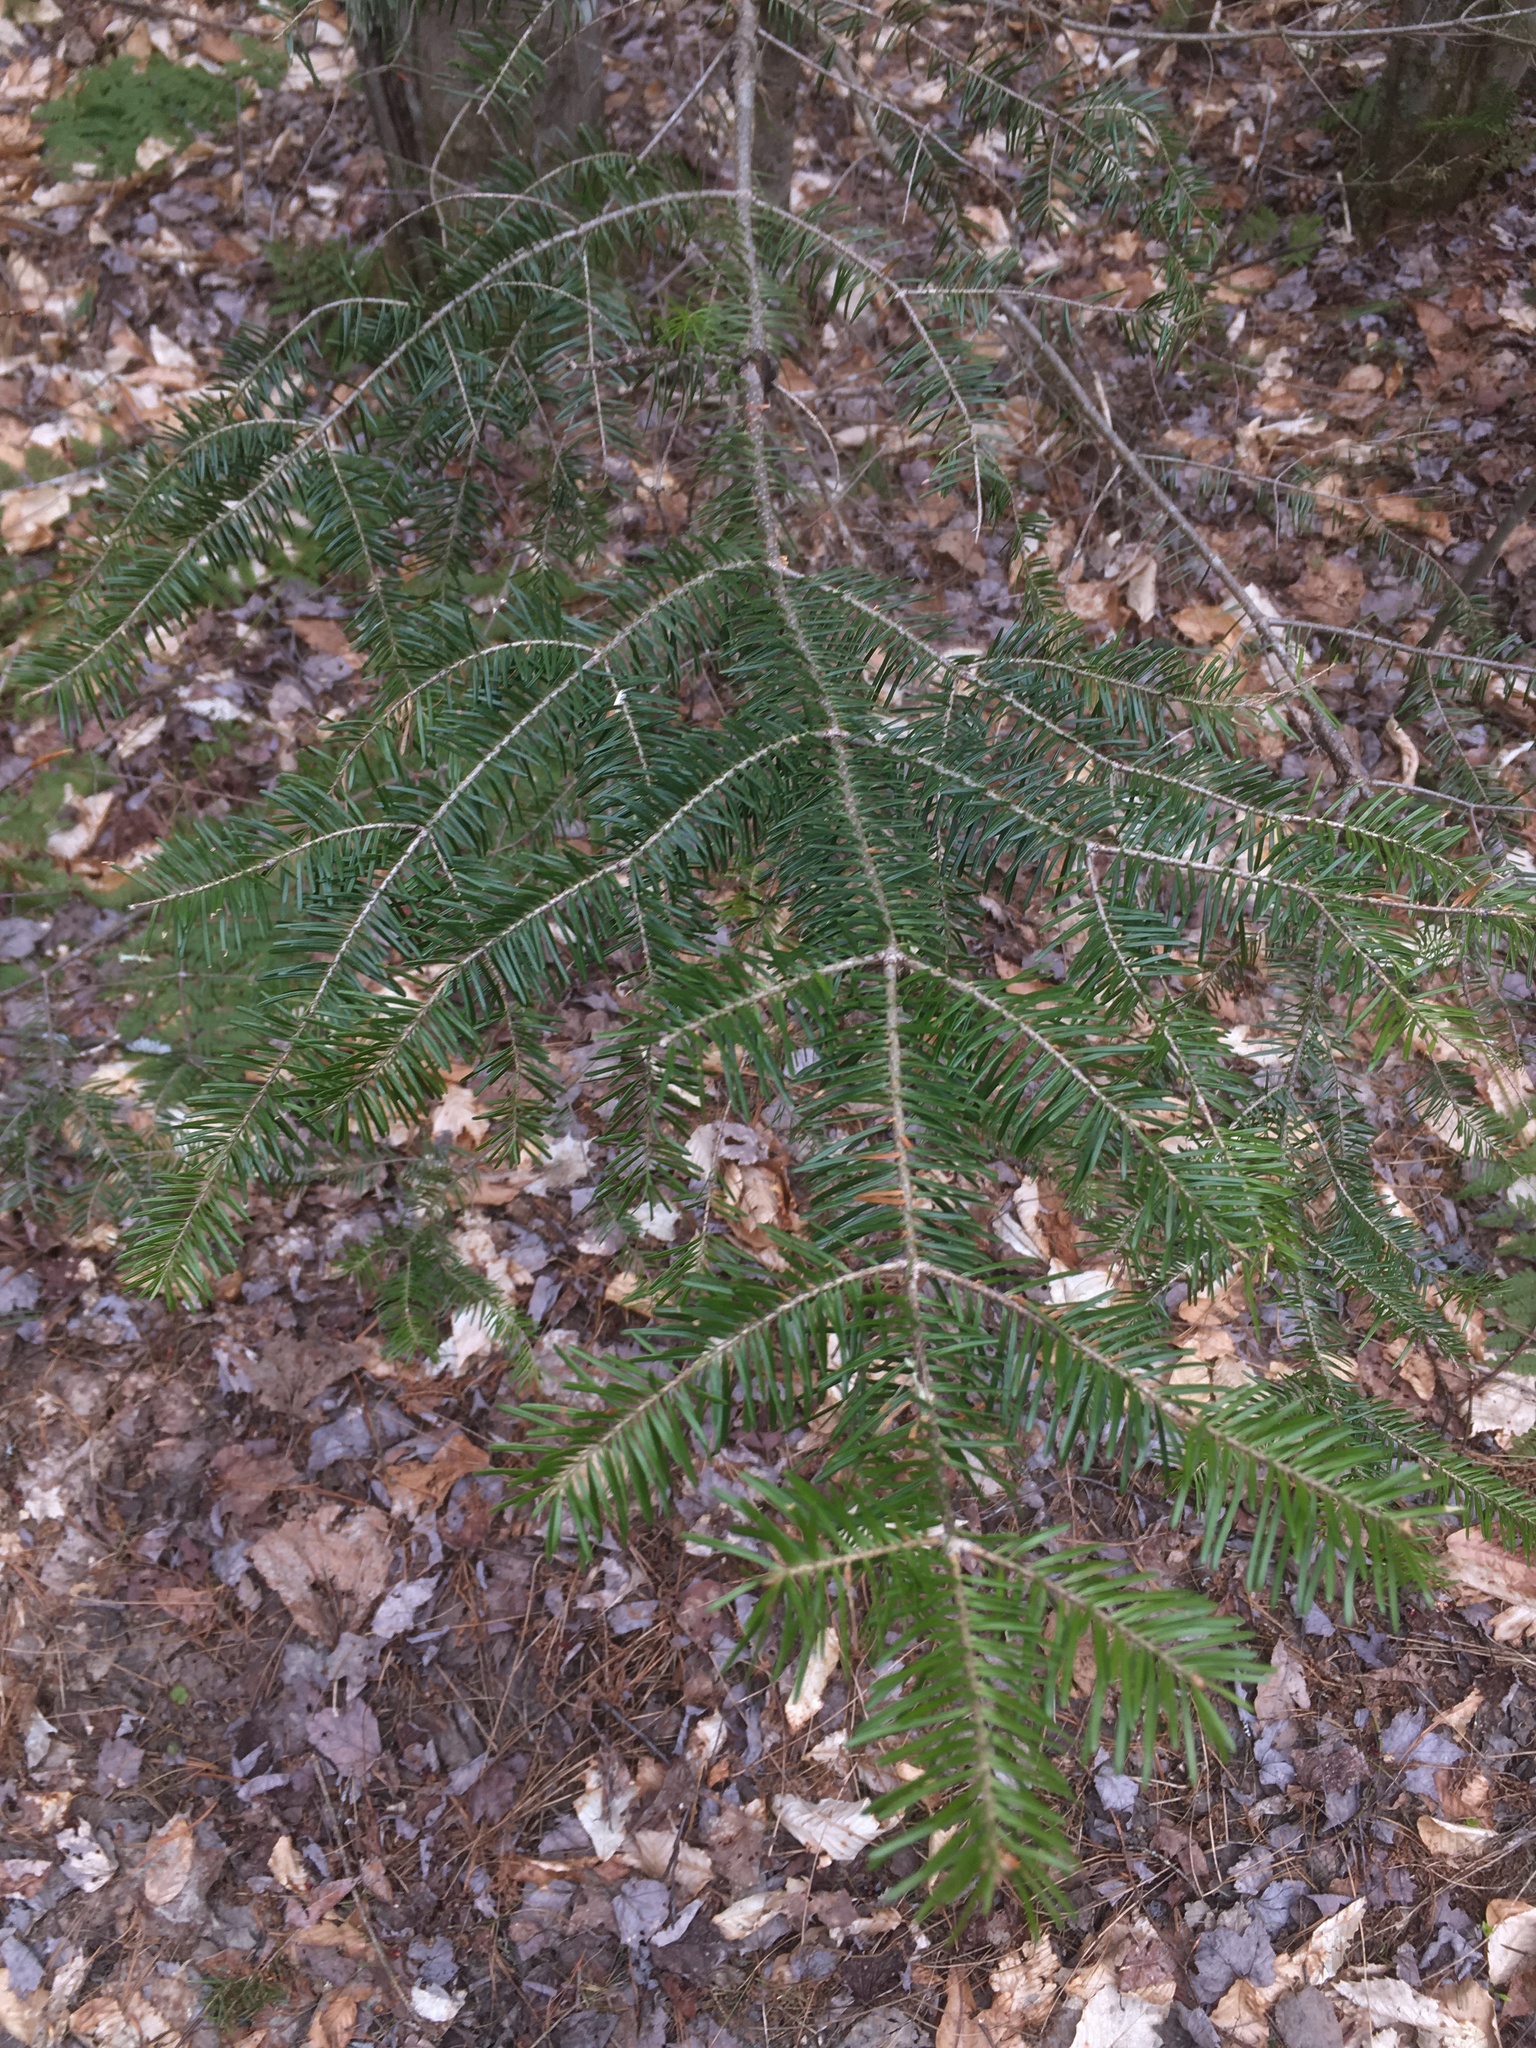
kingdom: Plantae
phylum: Tracheophyta
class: Pinopsida
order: Pinales
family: Pinaceae
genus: Abies
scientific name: Abies balsamea
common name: Balsam fir
